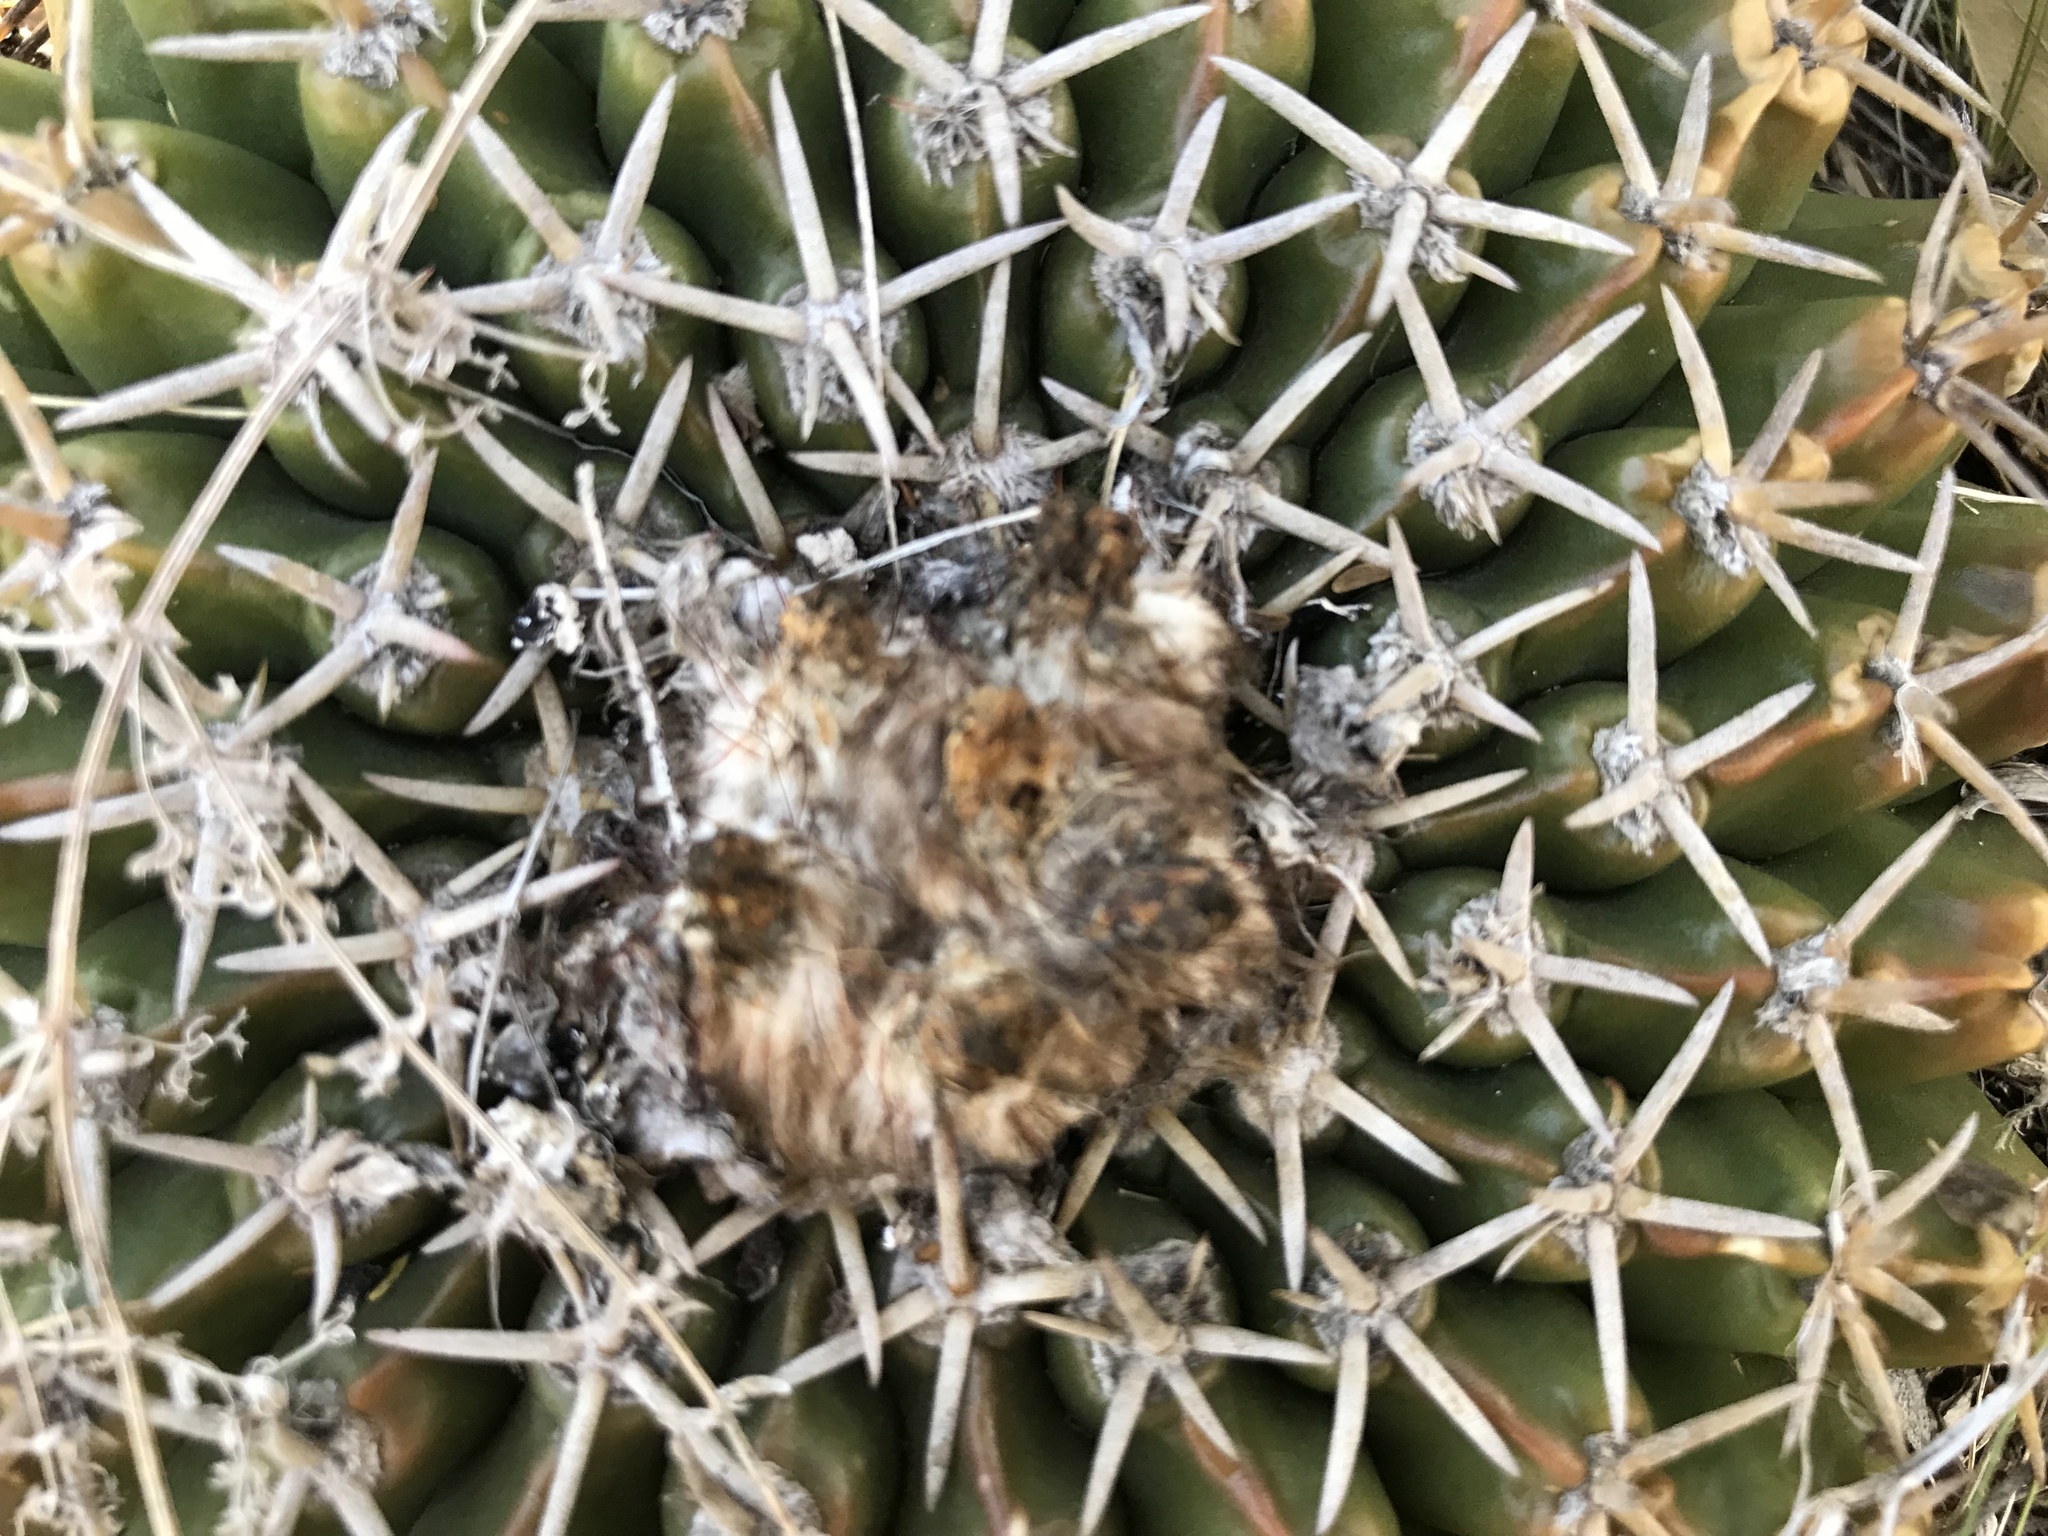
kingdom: Plantae
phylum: Tracheophyta
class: Magnoliopsida
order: Caryophyllales
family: Cactaceae
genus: Parodia
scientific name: Parodia erinacea
